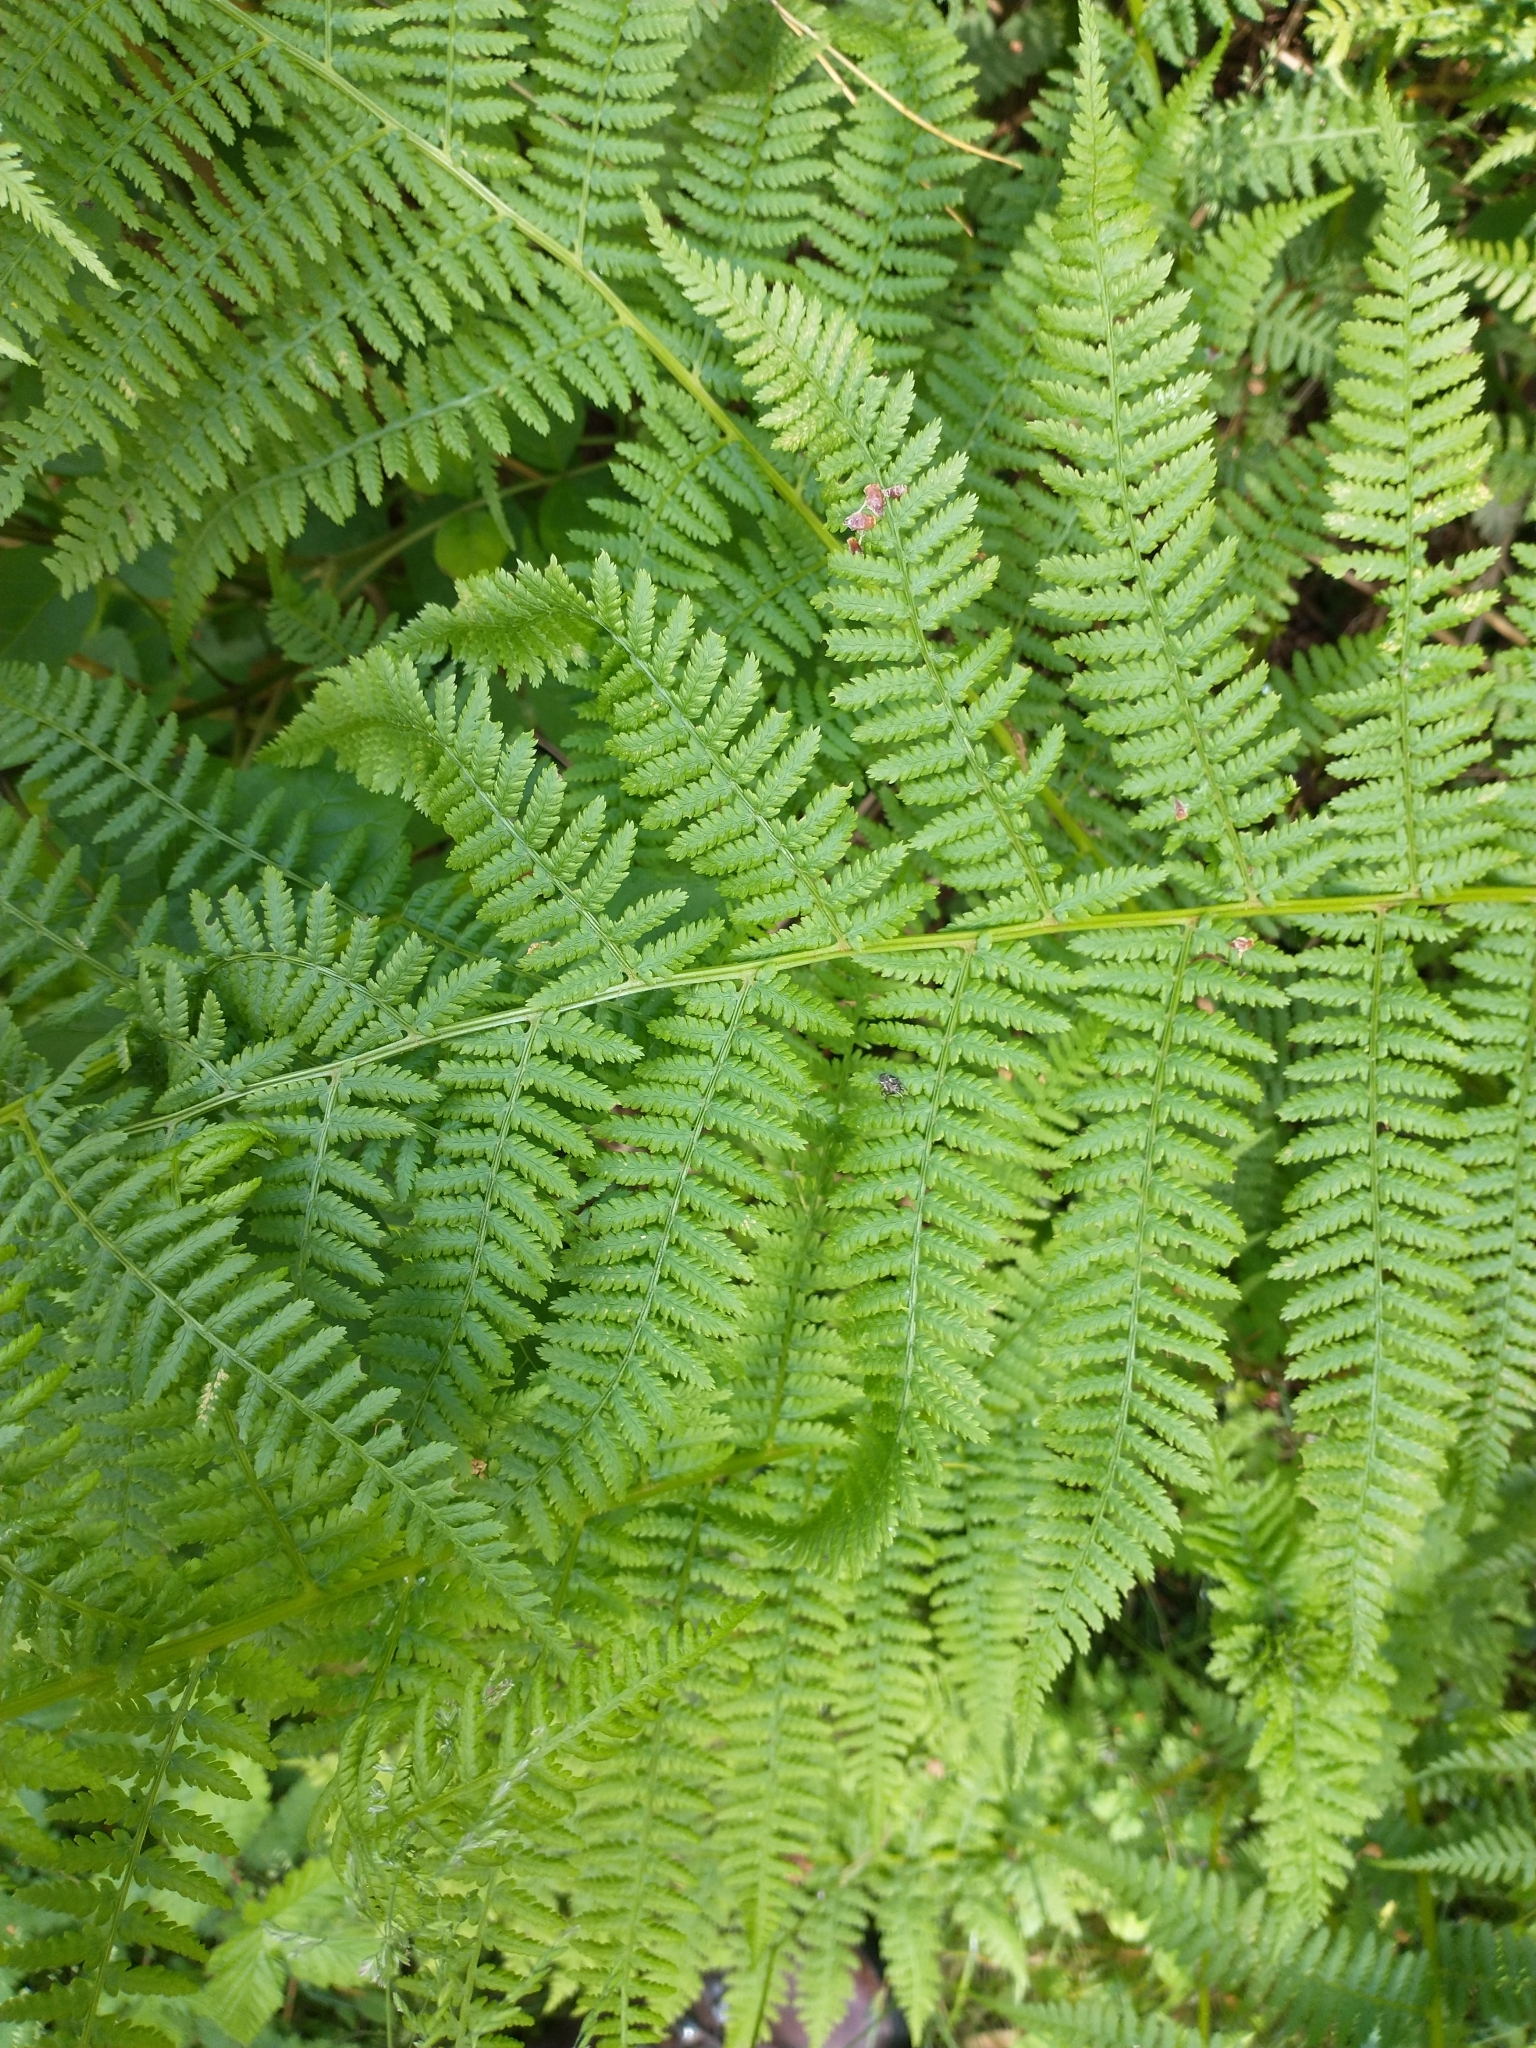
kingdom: Plantae
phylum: Tracheophyta
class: Polypodiopsida
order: Polypodiales
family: Athyriaceae
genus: Athyrium
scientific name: Athyrium filix-femina
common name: Lady fern
